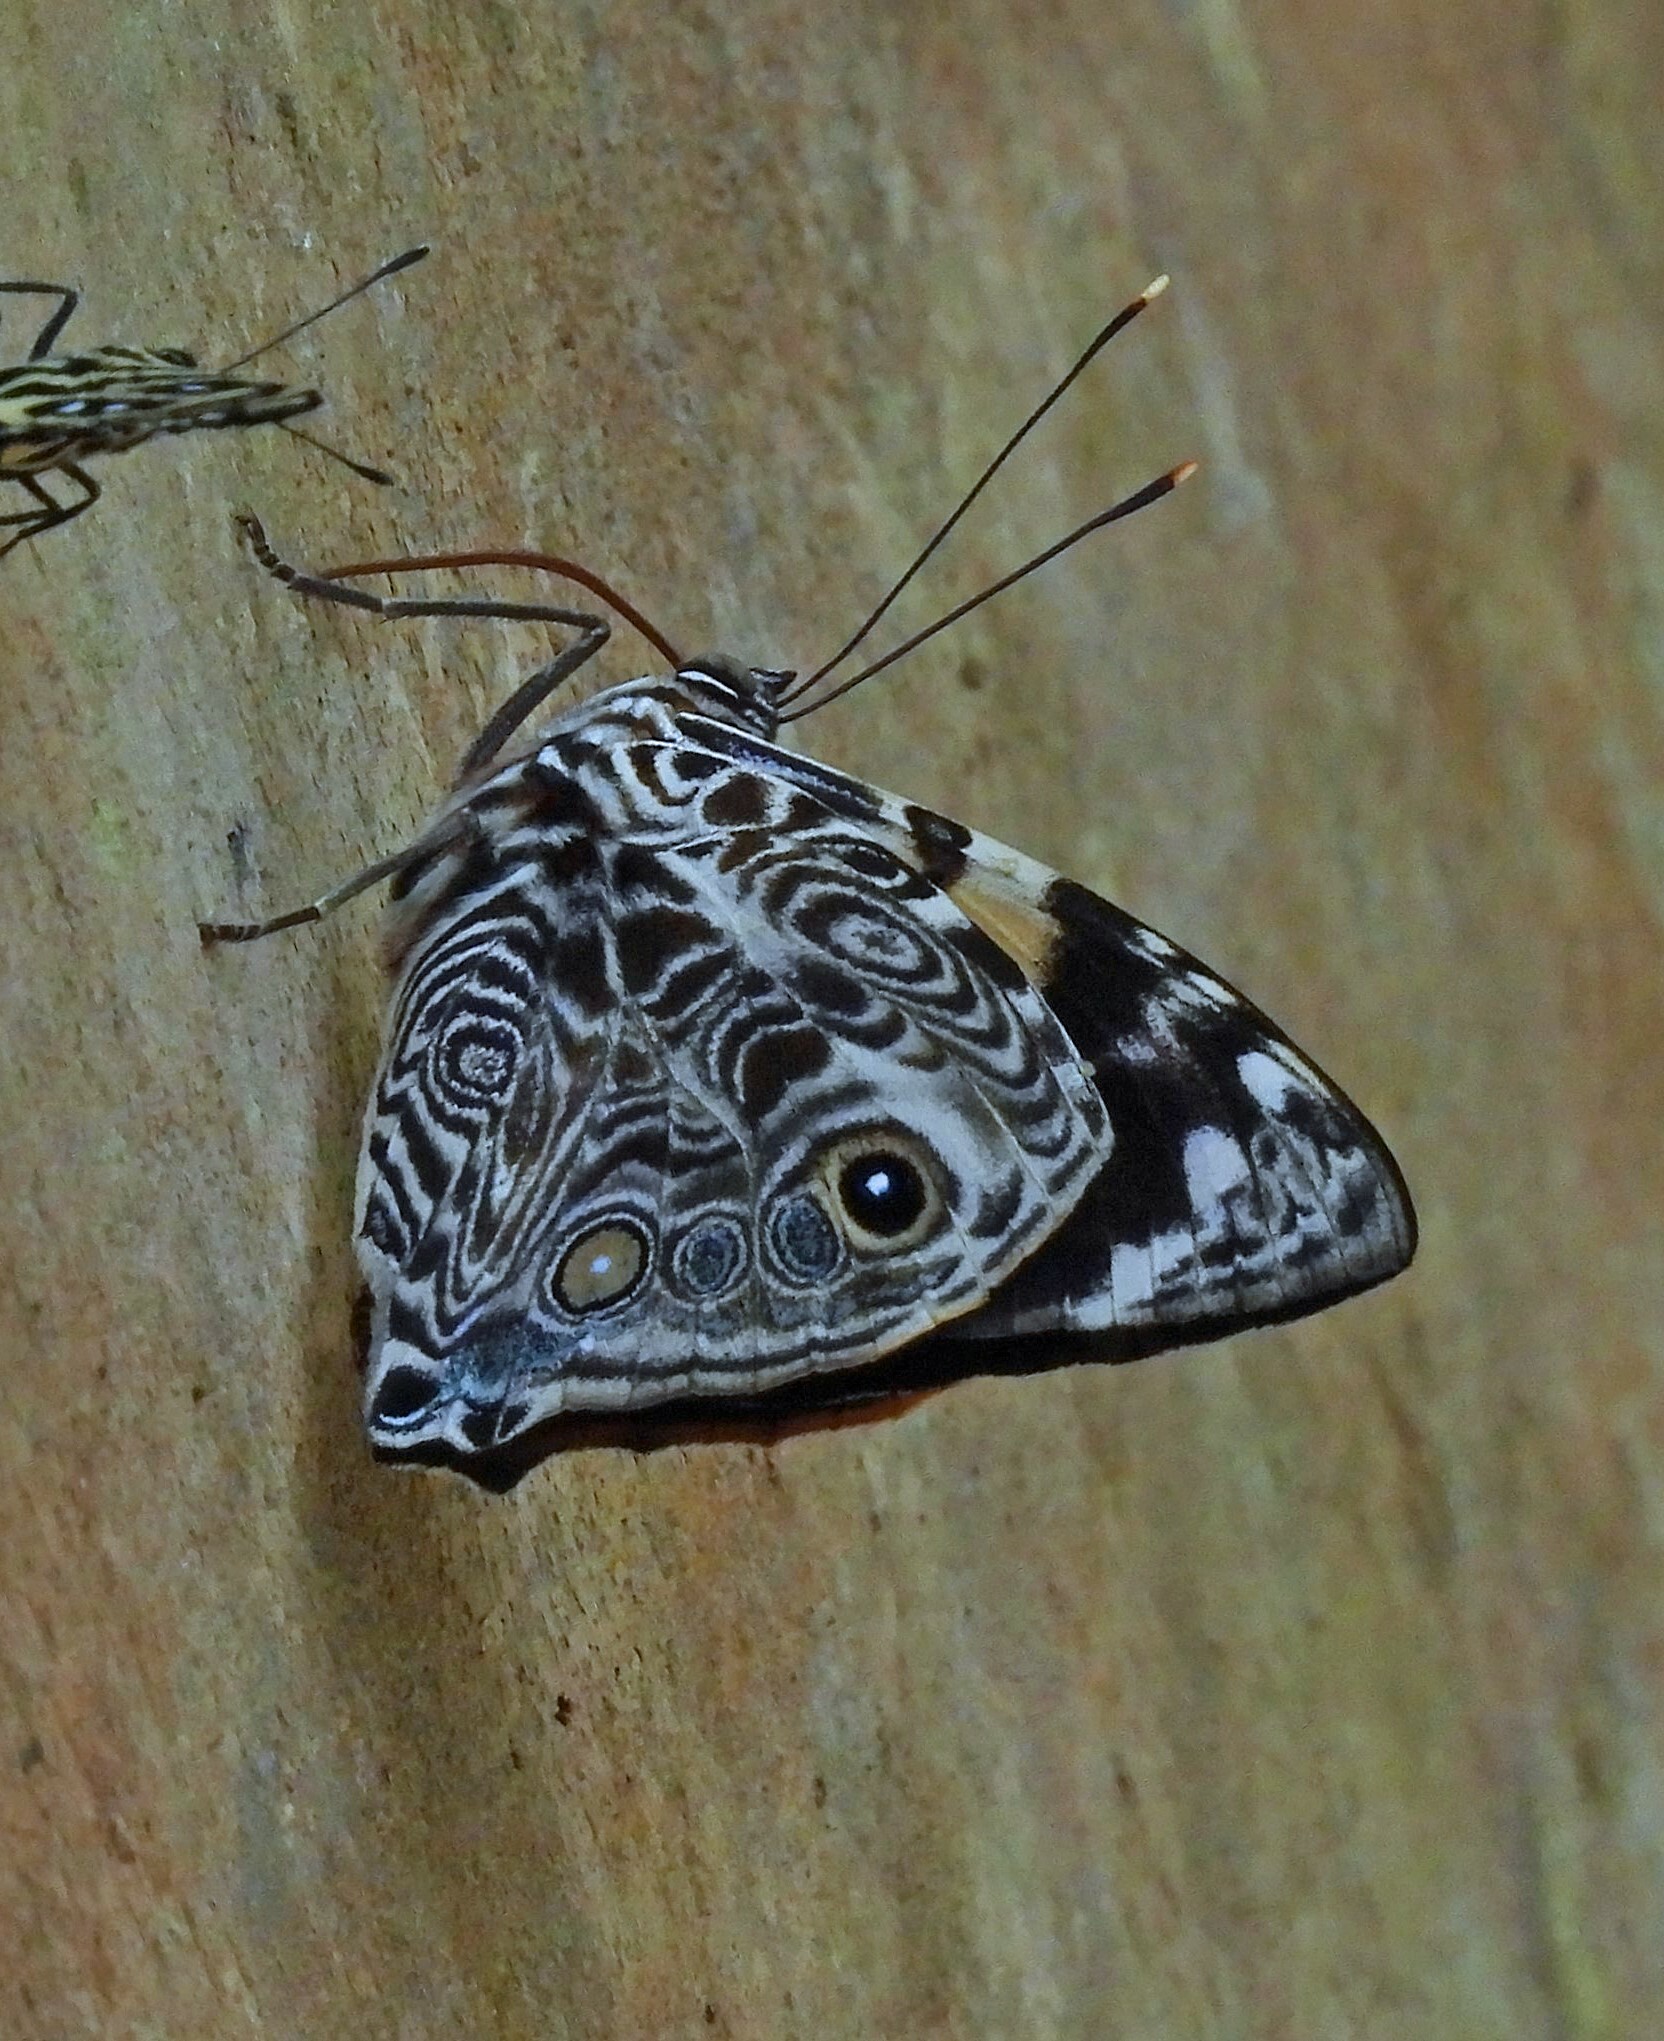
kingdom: Animalia
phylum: Arthropoda
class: Insecta
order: Lepidoptera
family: Nymphalidae
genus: Smyrna
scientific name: Smyrna blomfildia
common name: Blomfild's beauty
